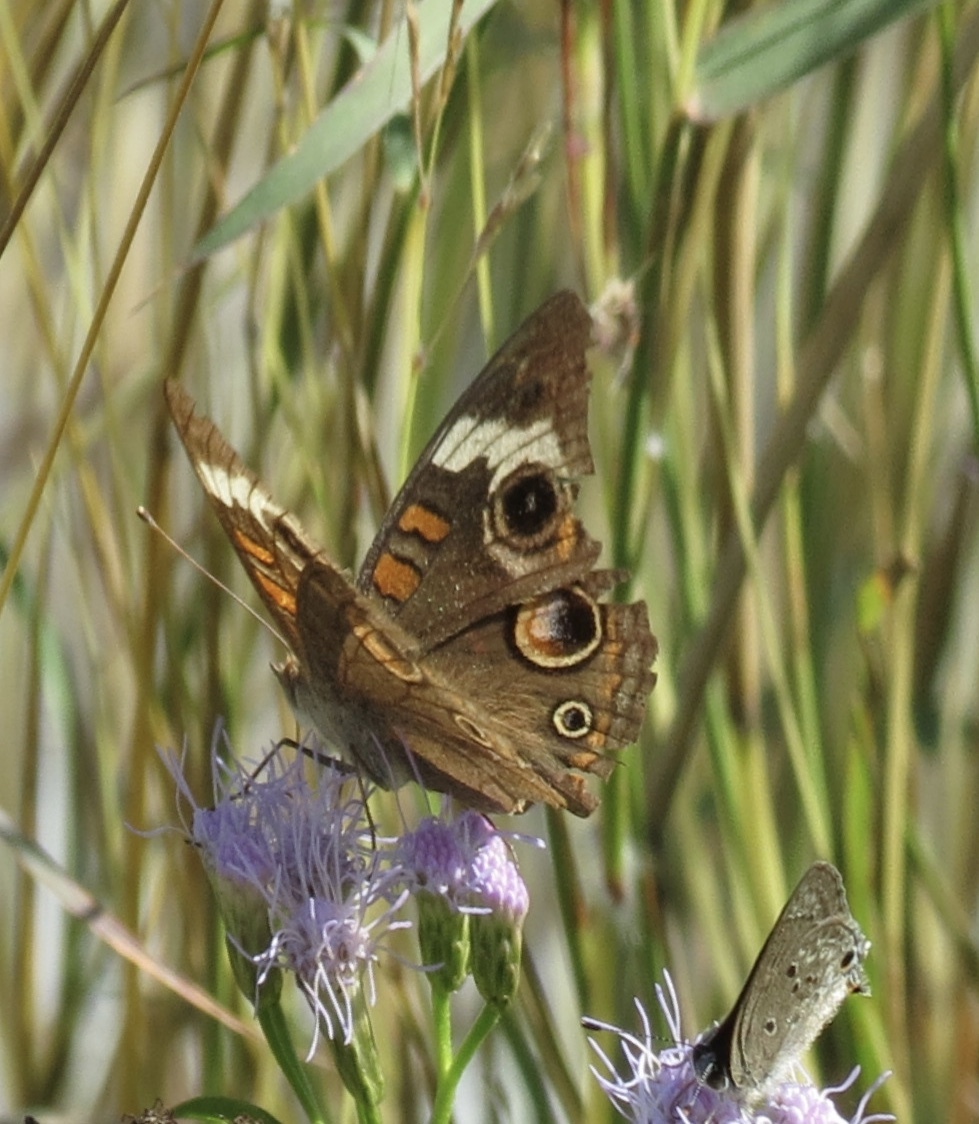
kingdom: Animalia
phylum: Arthropoda
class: Insecta
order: Lepidoptera
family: Nymphalidae
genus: Junonia
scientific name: Junonia coenia
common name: Common buckeye
